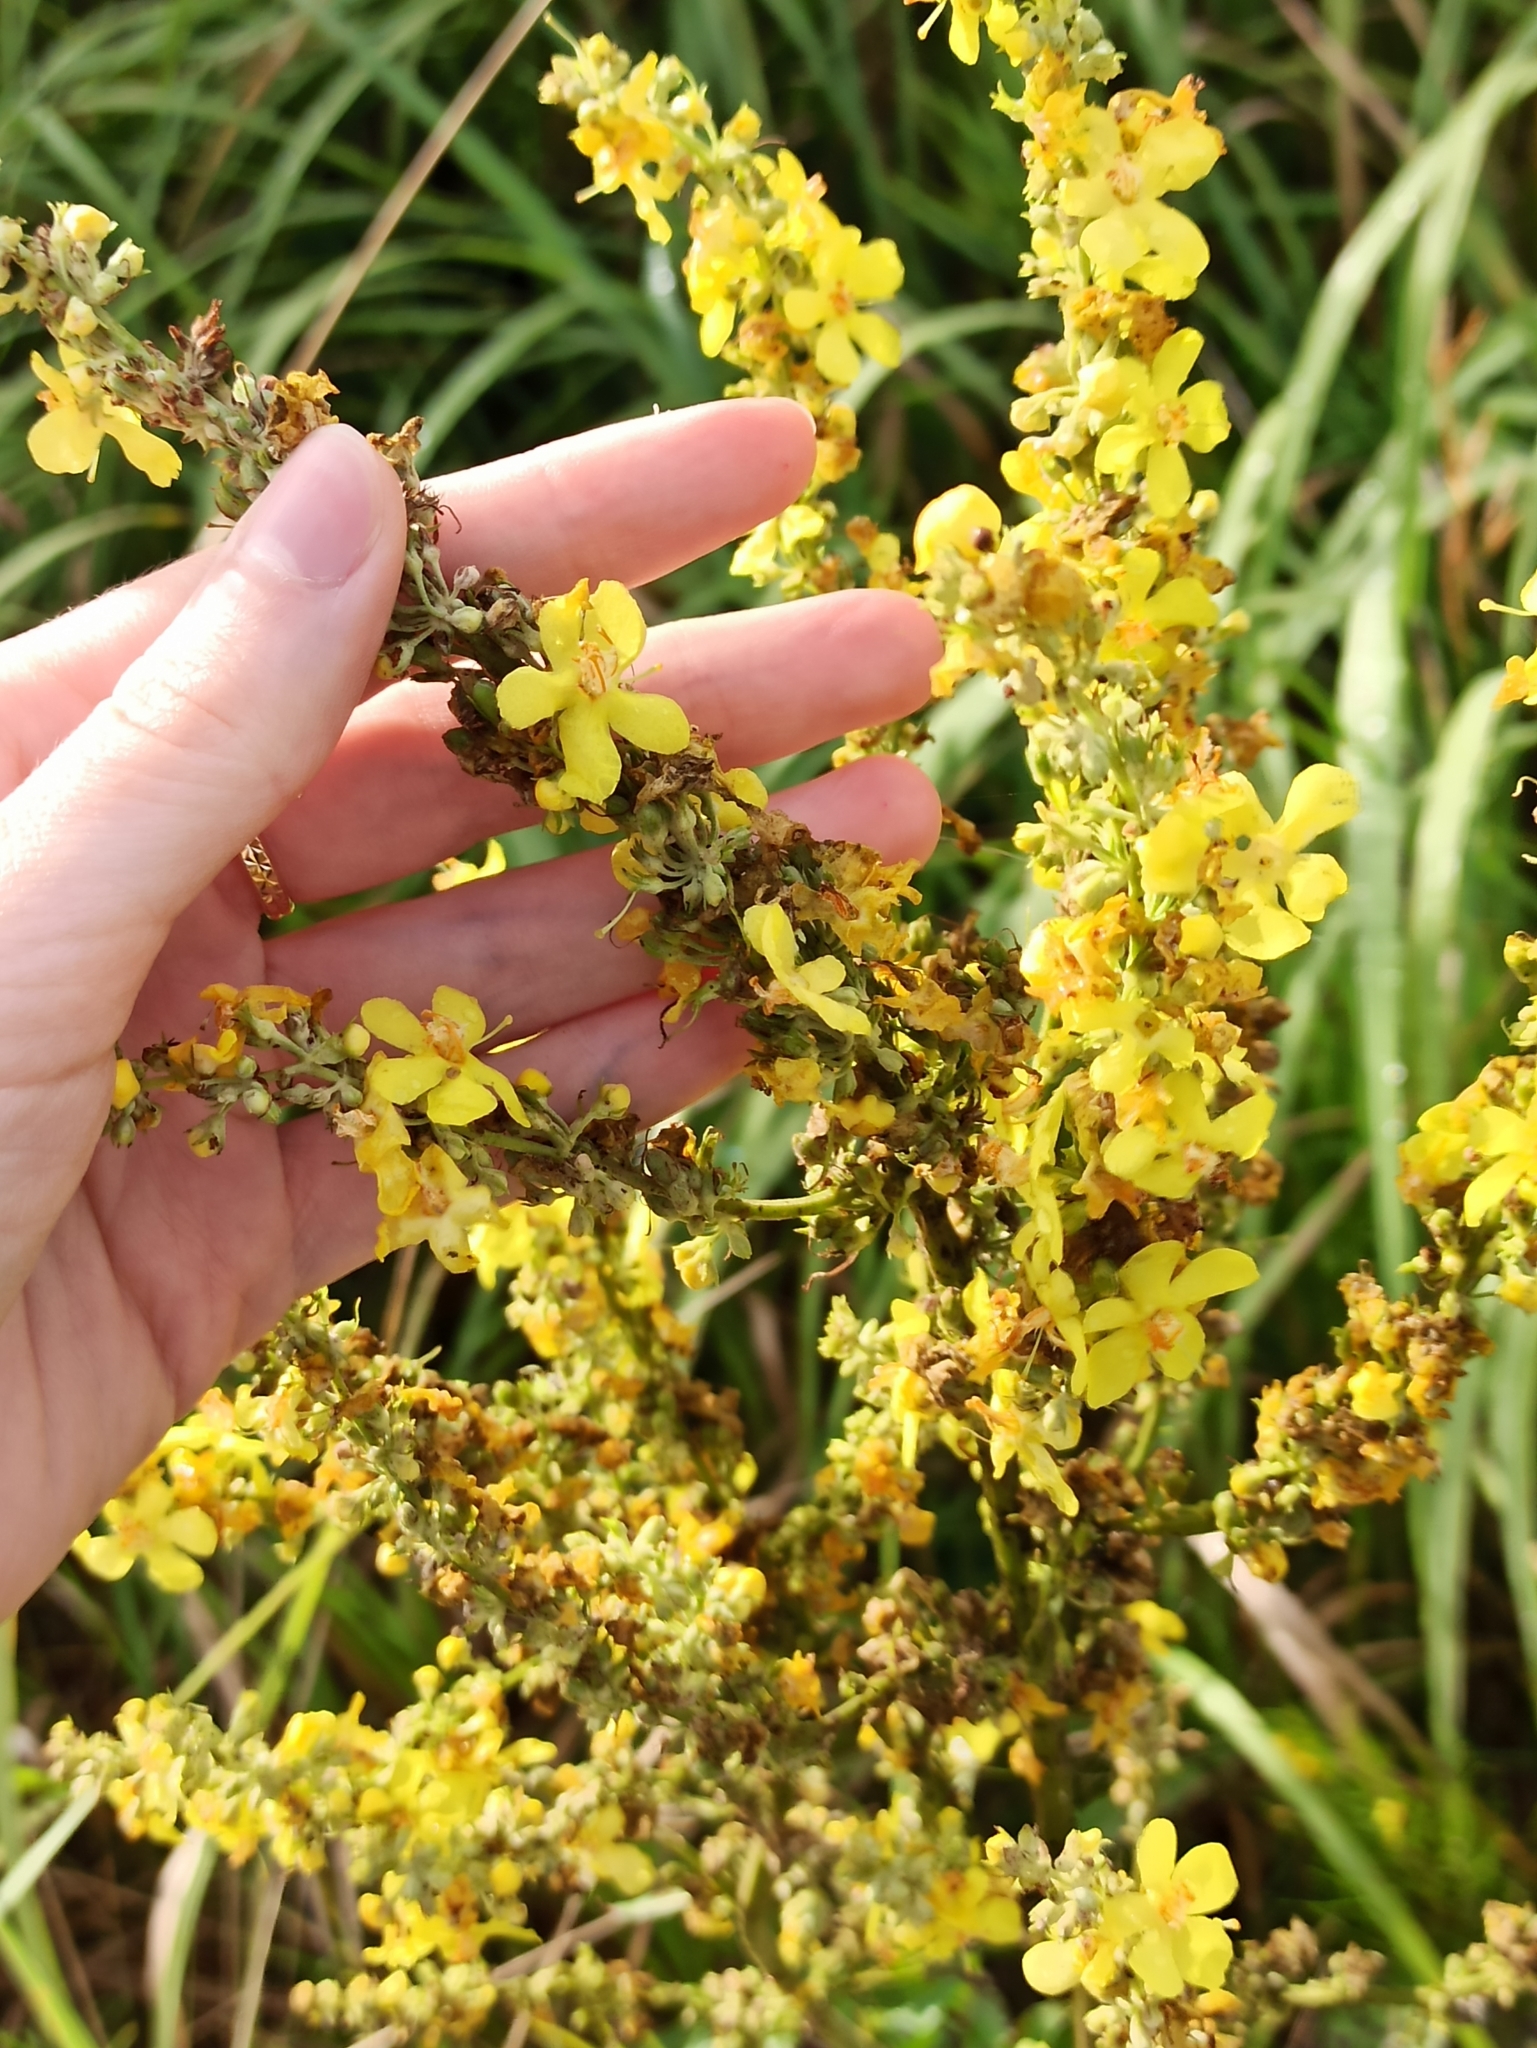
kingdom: Plantae
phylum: Tracheophyta
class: Magnoliopsida
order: Lamiales
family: Scrophulariaceae
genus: Verbascum
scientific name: Verbascum lychnitis
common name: White mullein
